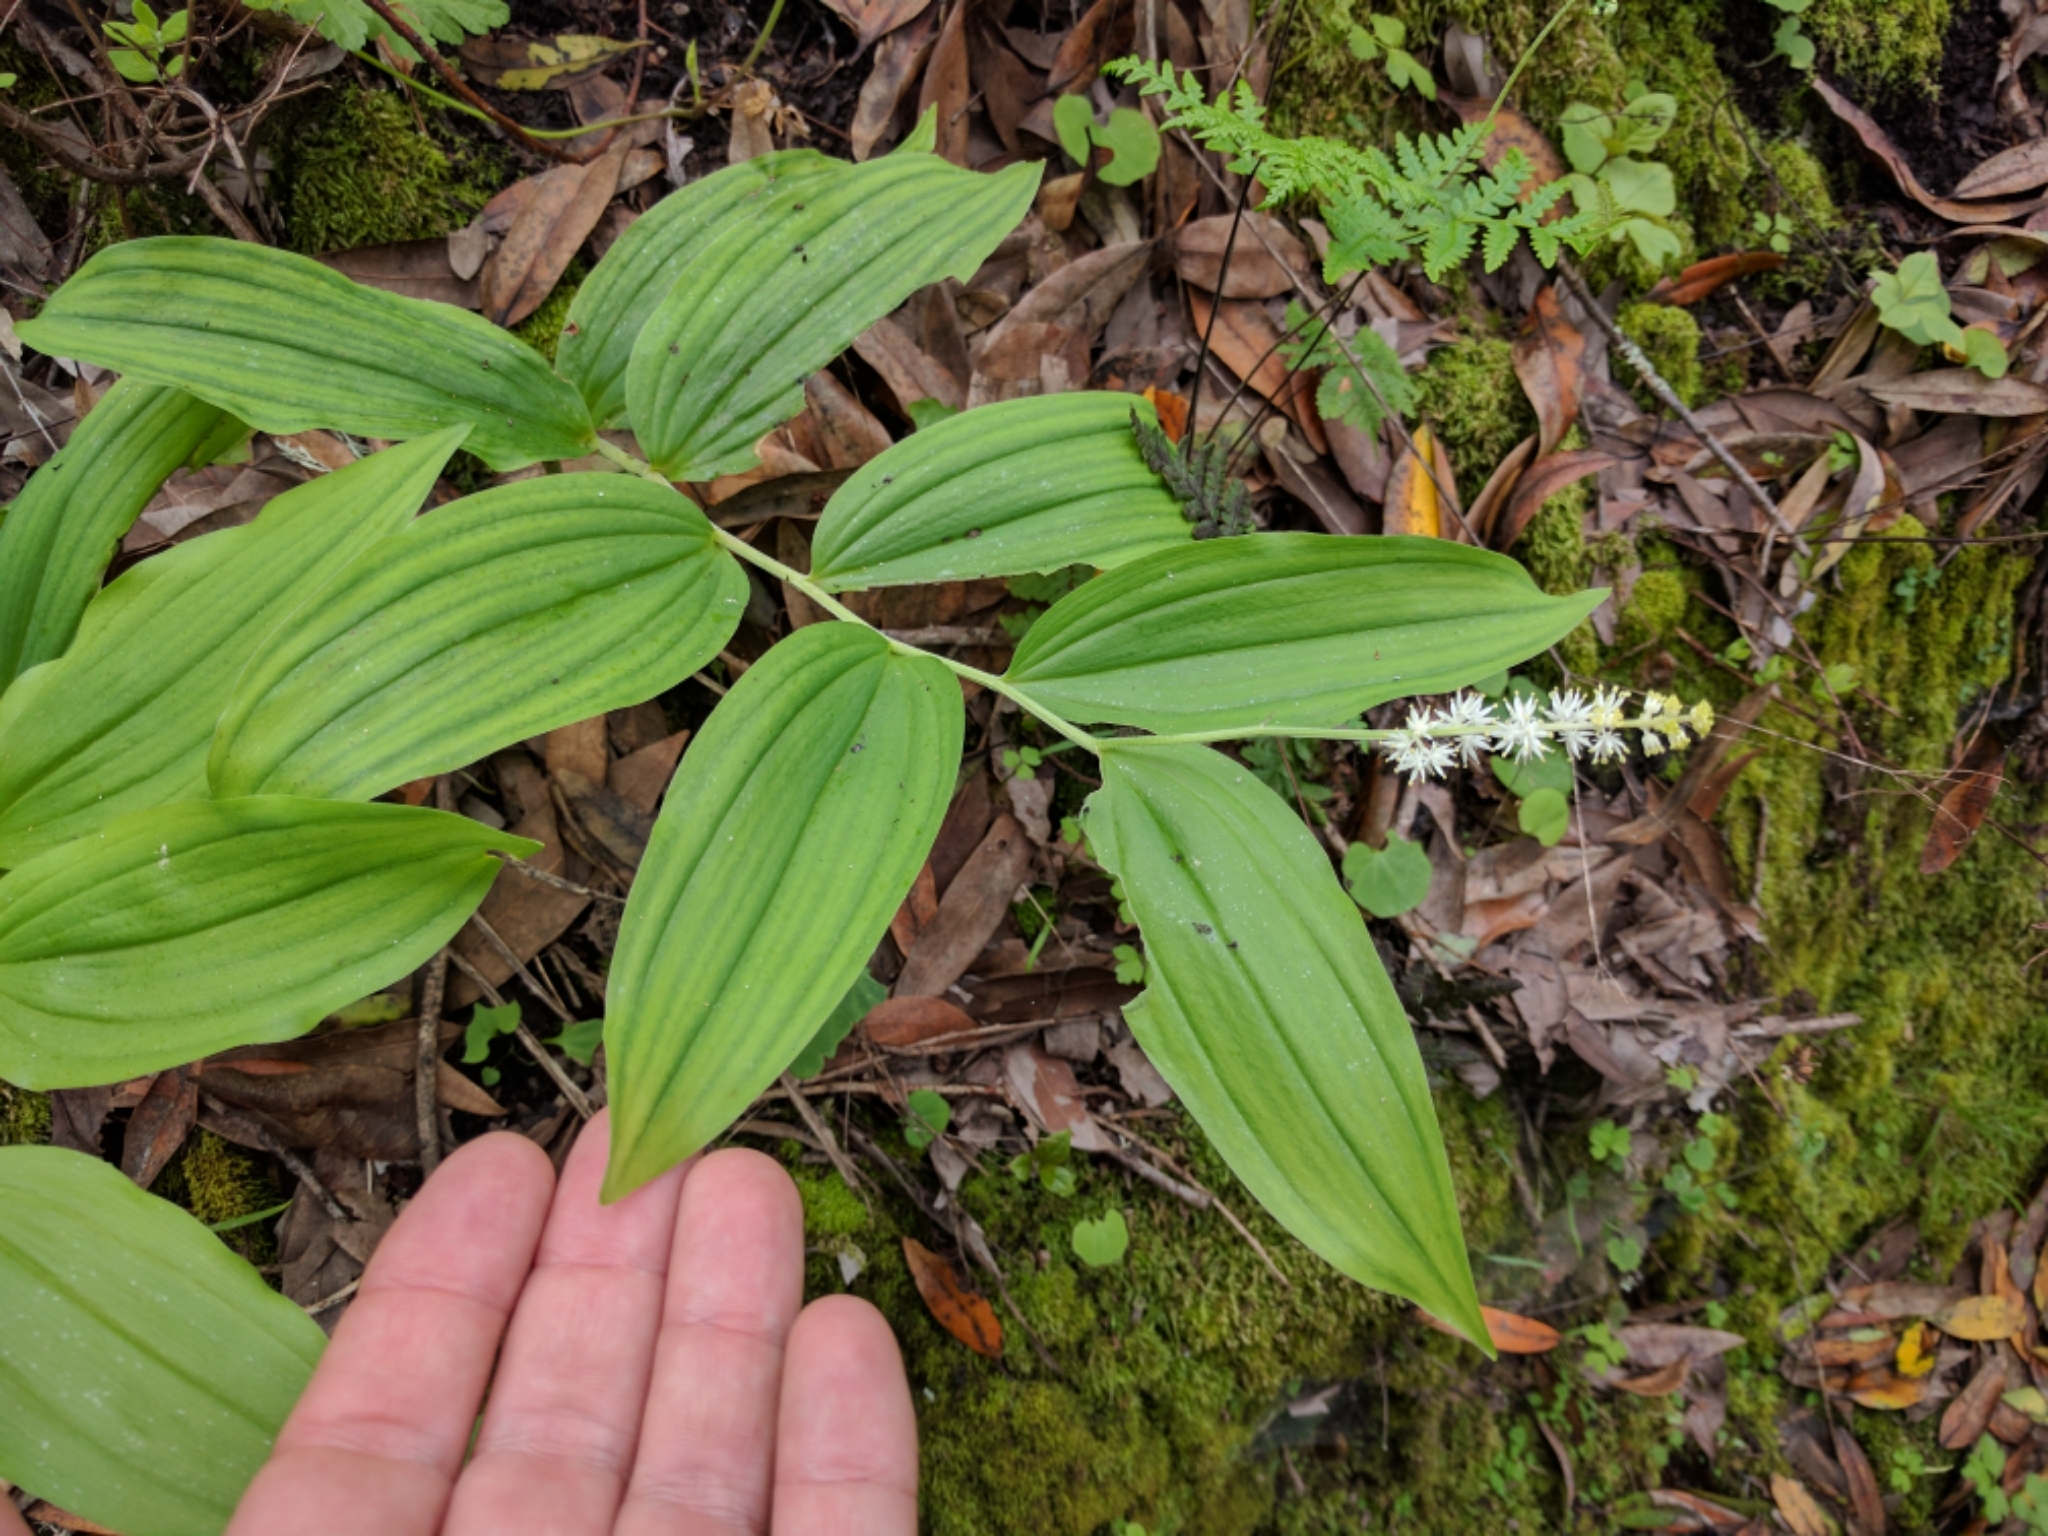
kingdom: Plantae
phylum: Tracheophyta
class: Liliopsida
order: Asparagales
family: Asparagaceae
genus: Maianthemum
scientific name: Maianthemum racemosum
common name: False spikenard
